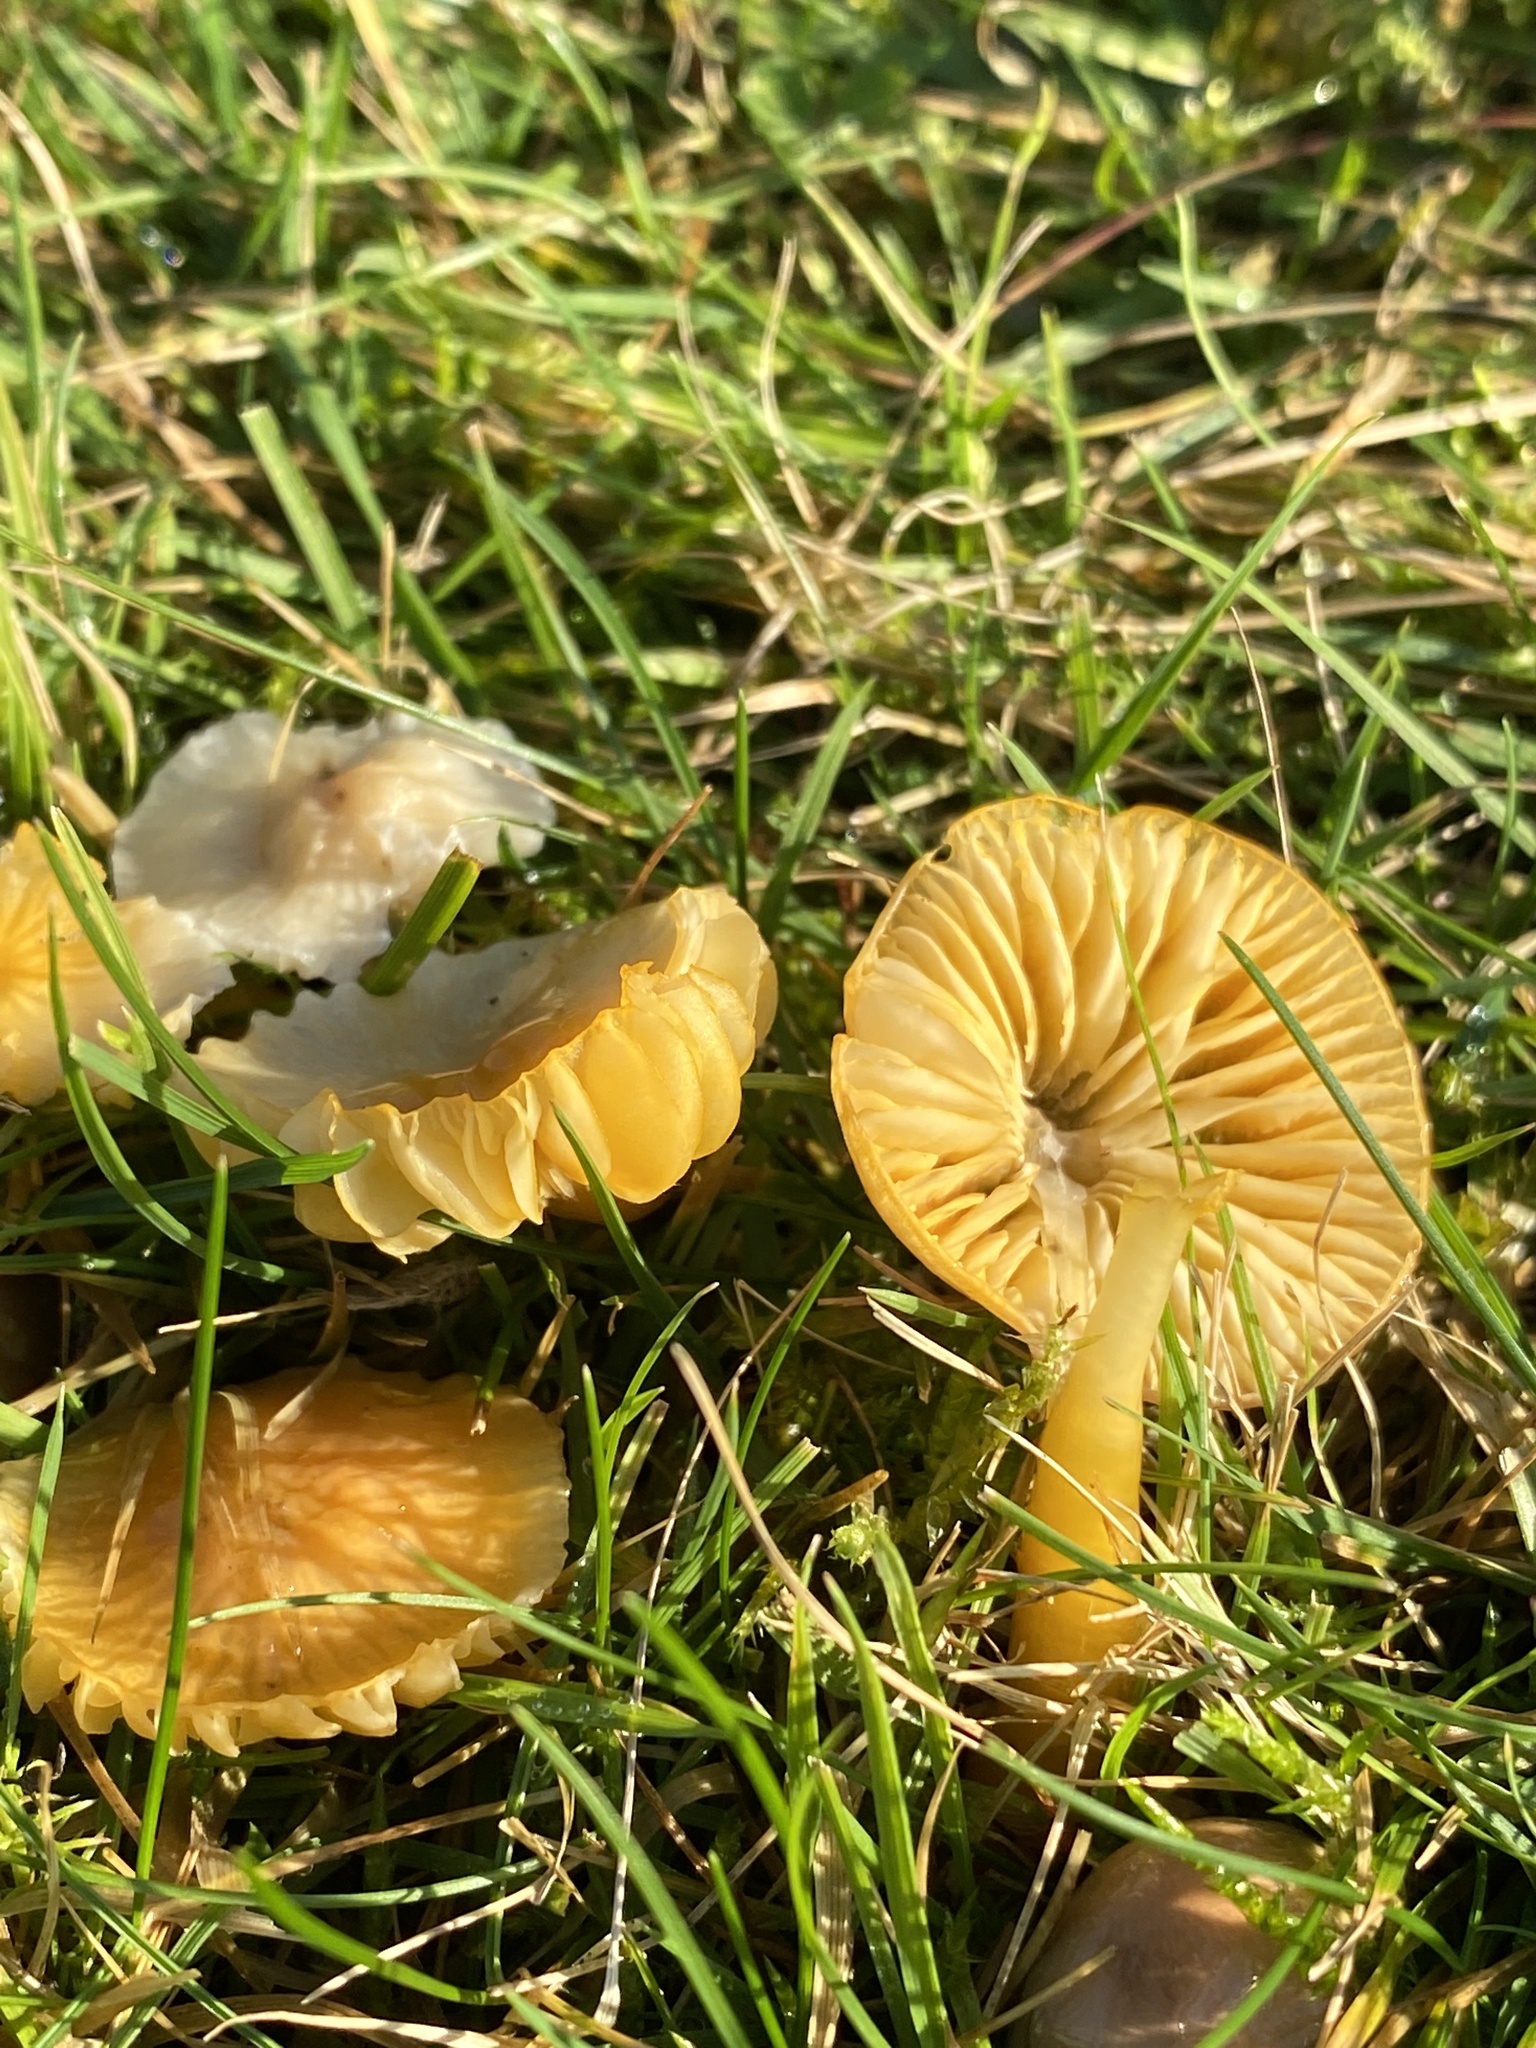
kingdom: Fungi
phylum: Basidiomycota
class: Agaricomycetes
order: Agaricales
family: Hygrophoraceae
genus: Gliophorus
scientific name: Gliophorus psittacinus
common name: Parrot wax-cap
